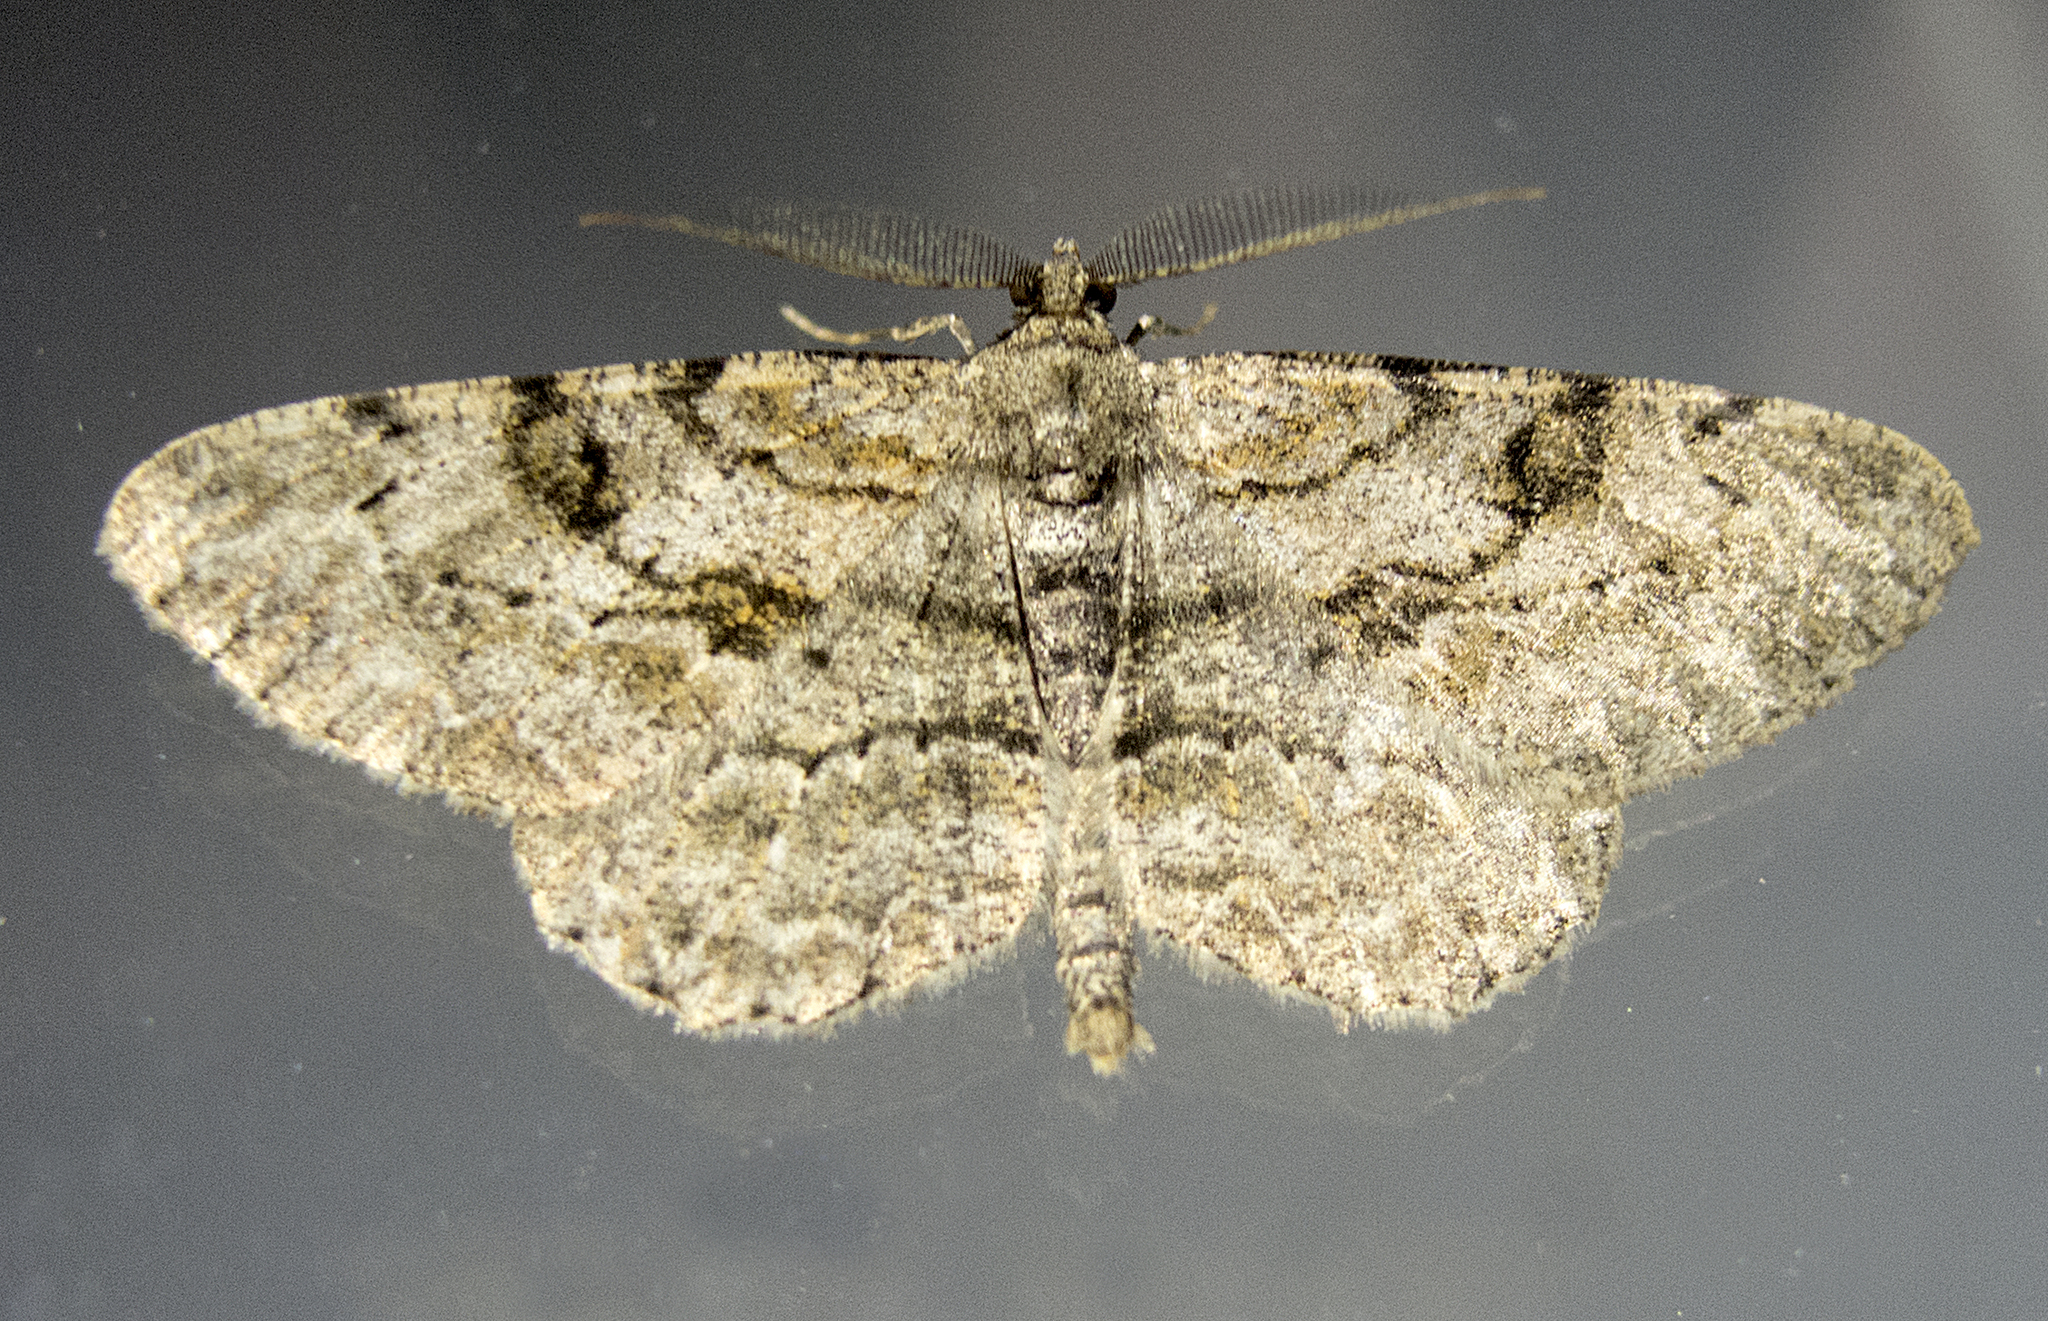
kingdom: Animalia
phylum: Arthropoda
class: Insecta
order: Lepidoptera
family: Geometridae
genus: Peribatodes
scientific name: Peribatodes rhomboidaria
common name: Willow beauty
